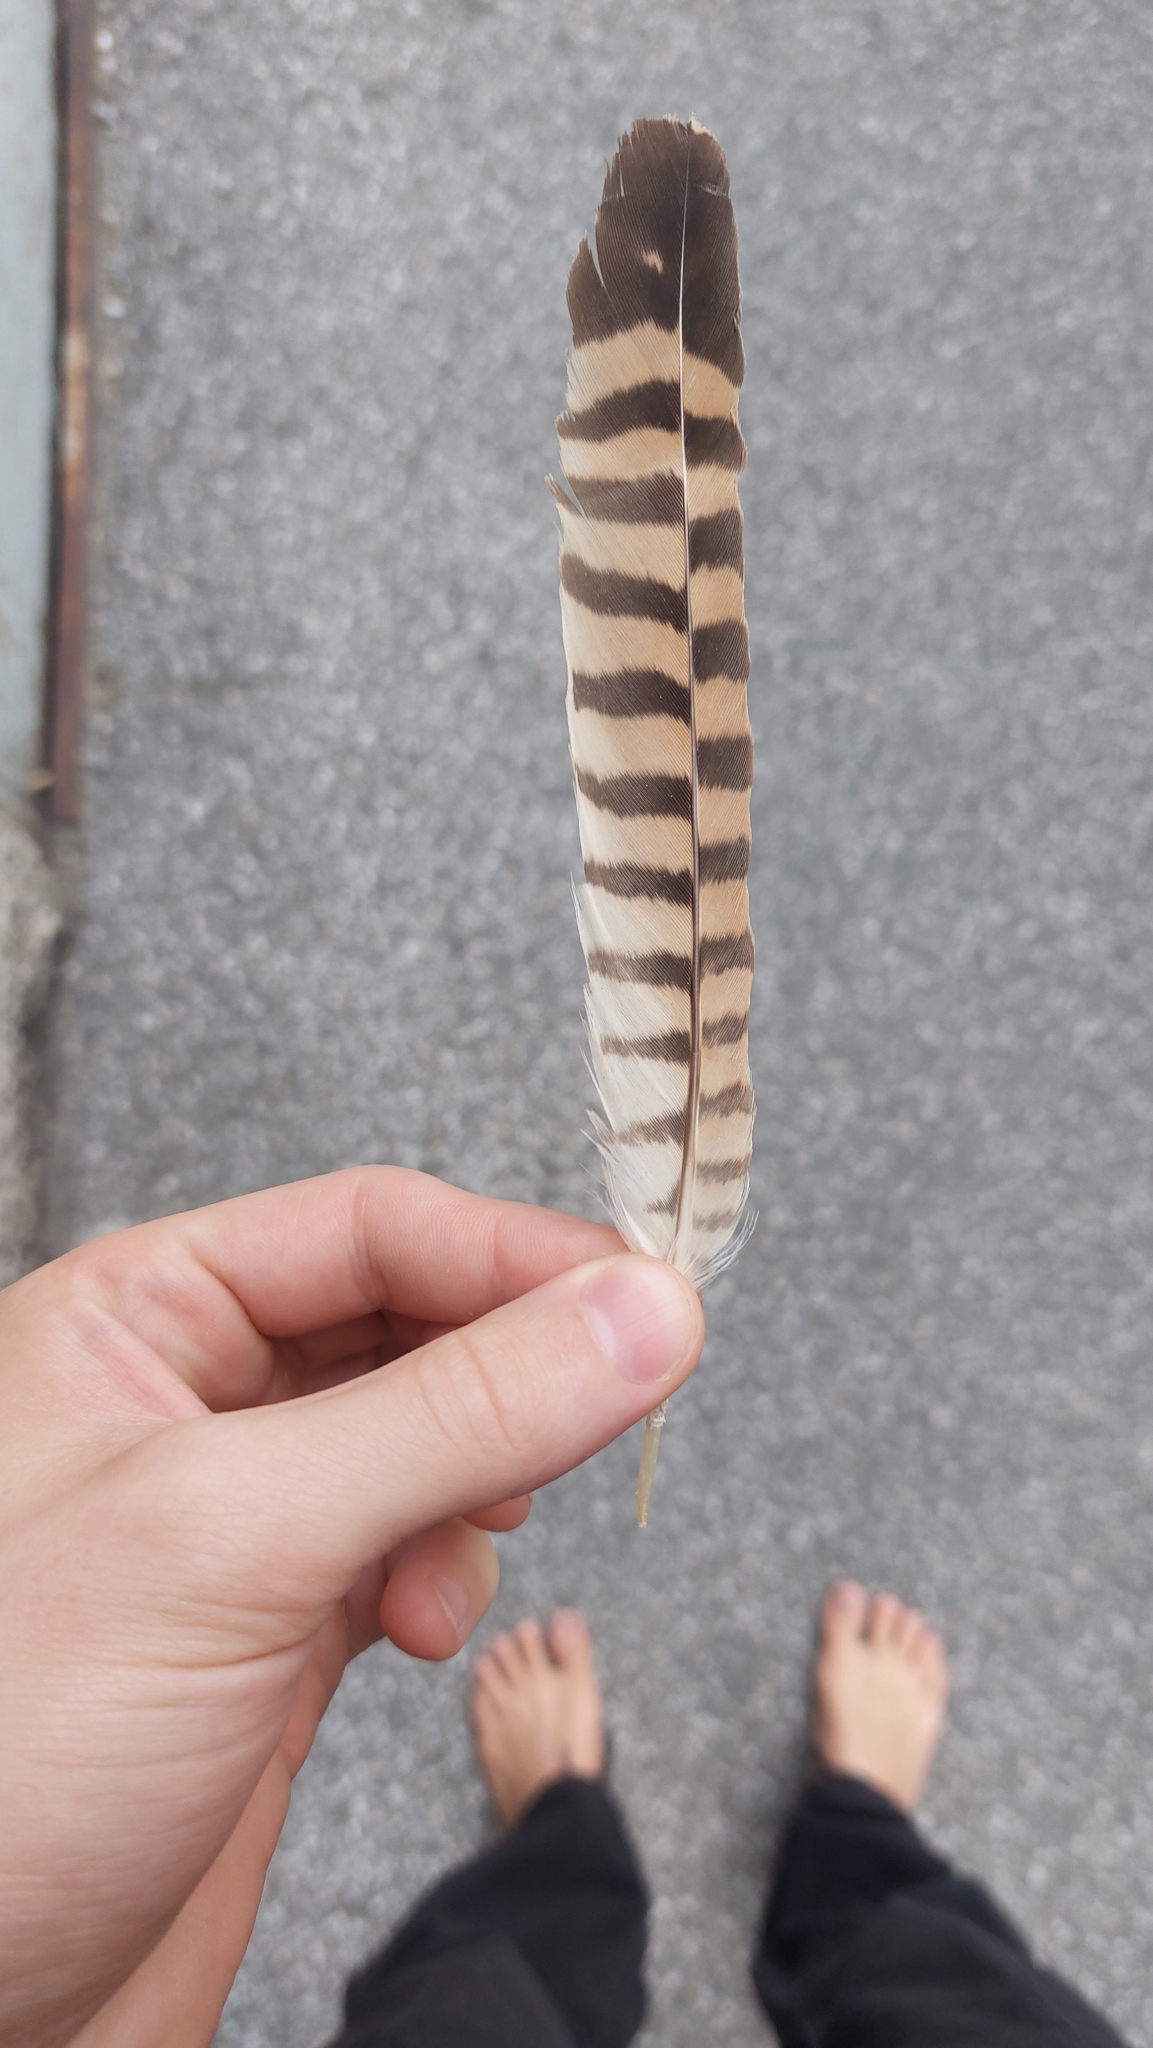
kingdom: Animalia
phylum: Chordata
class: Aves
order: Falconiformes
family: Falconidae
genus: Falco
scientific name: Falco tinnunculus
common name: Common kestrel
